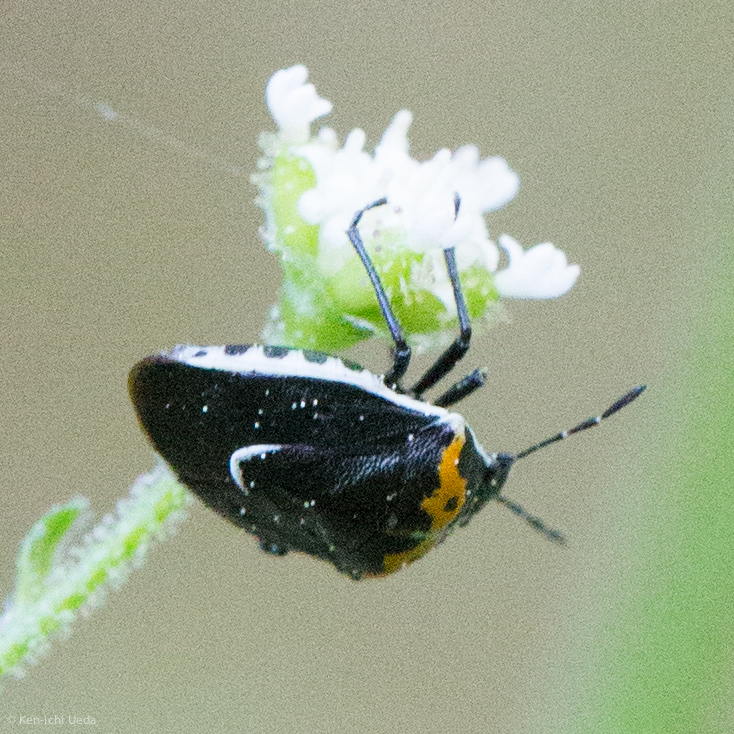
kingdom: Animalia
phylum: Arthropoda
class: Insecta
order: Hemiptera
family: Pentatomidae
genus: Cosmopepla
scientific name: Cosmopepla conspicillaris
